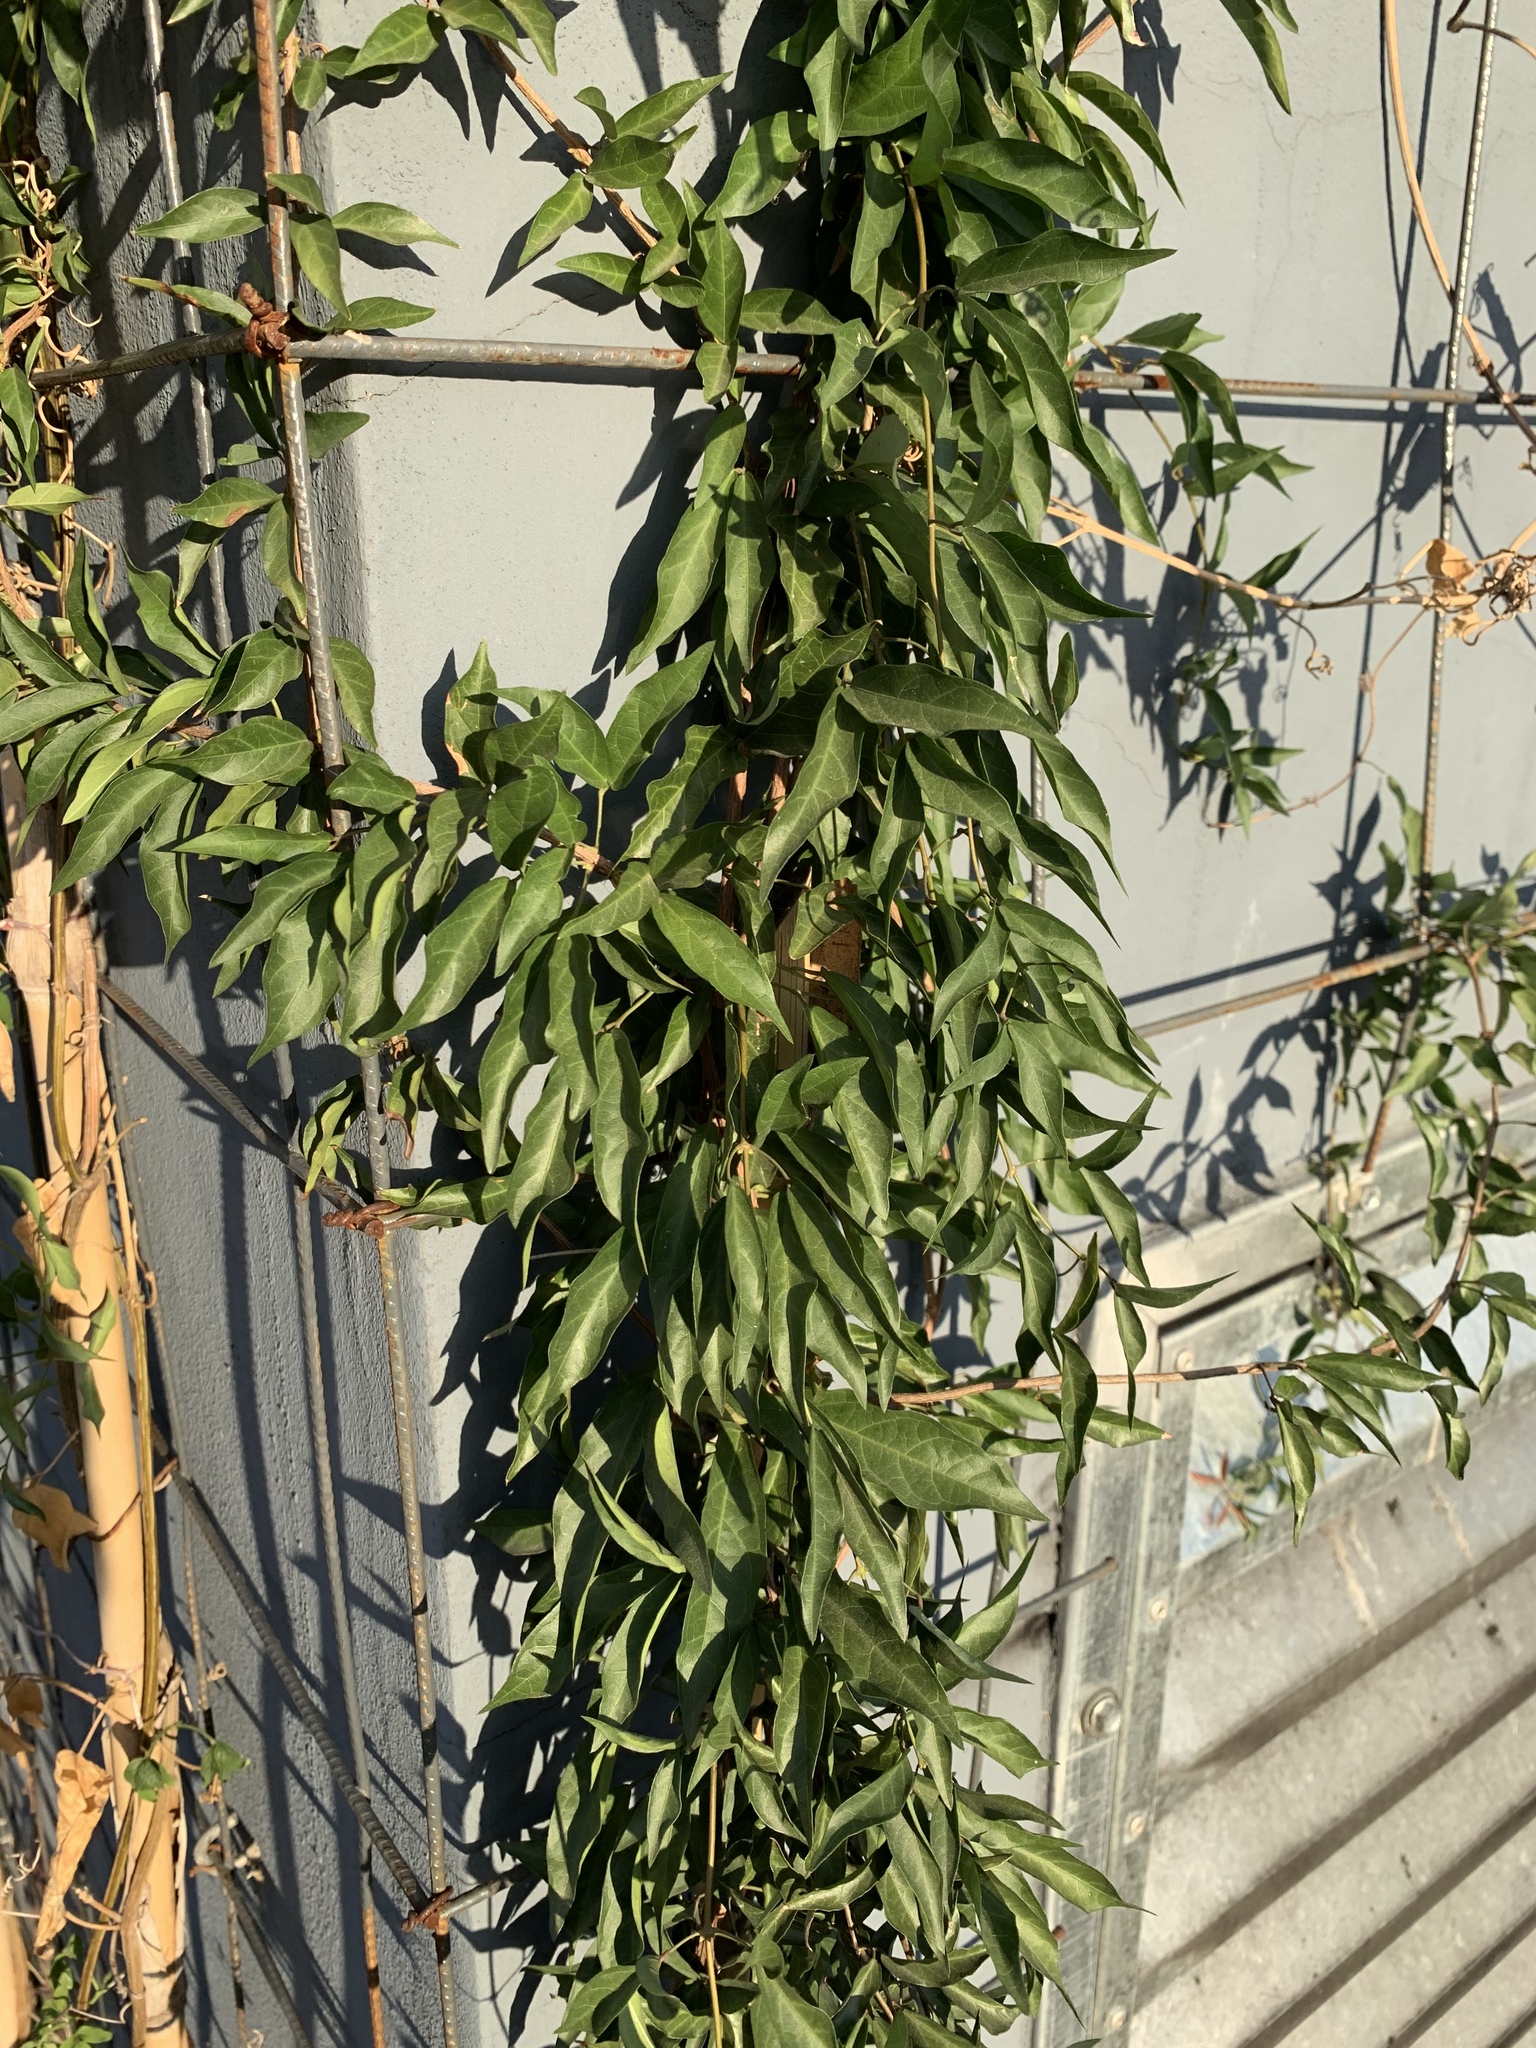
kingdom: Plantae
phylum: Tracheophyta
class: Magnoliopsida
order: Lamiales
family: Bignoniaceae
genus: Dolichandra
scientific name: Dolichandra unguis-cati
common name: Catclaw vine
